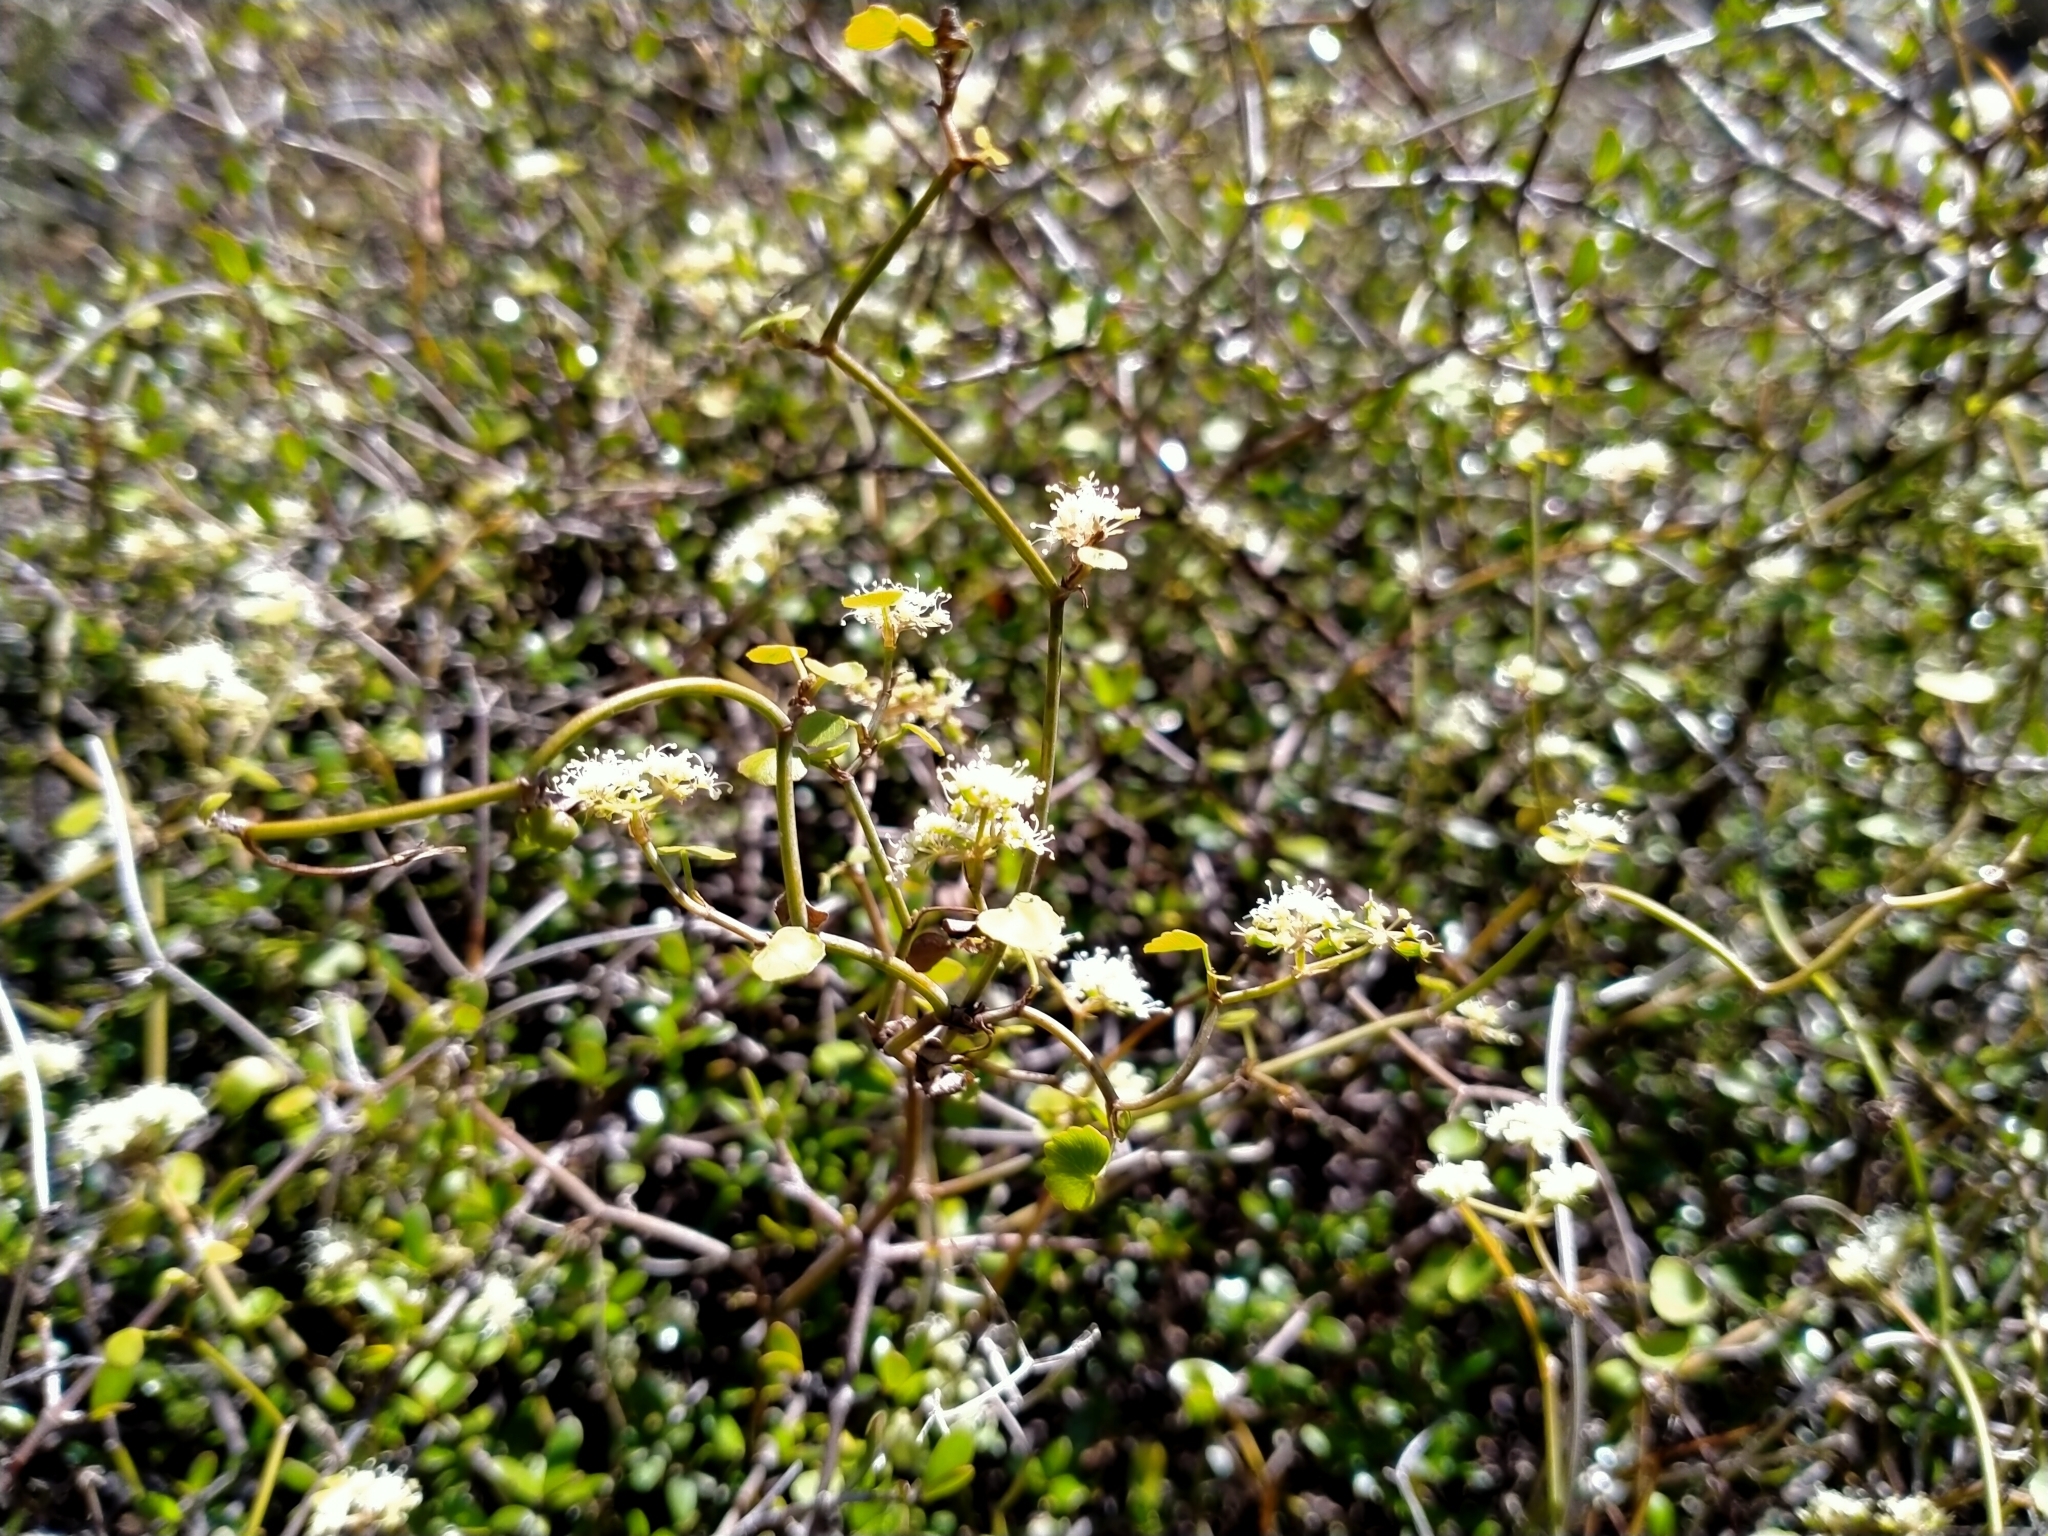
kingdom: Plantae
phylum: Tracheophyta
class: Magnoliopsida
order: Apiales
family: Apiaceae
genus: Scandia
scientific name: Scandia geniculata
